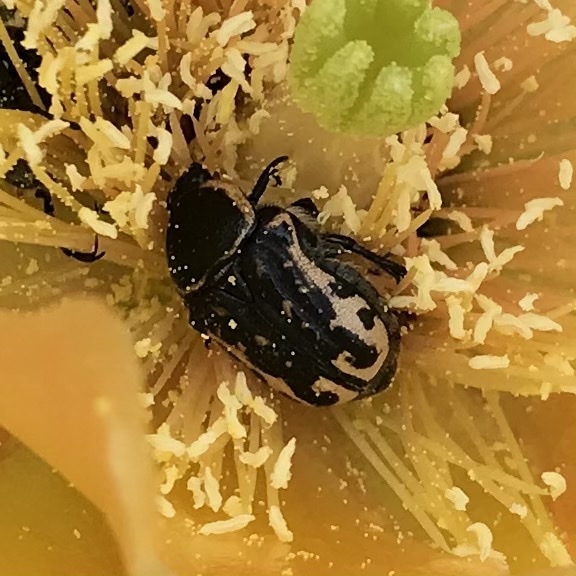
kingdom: Animalia
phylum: Arthropoda
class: Insecta
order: Coleoptera
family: Scarabaeidae
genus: Euphoria
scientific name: Euphoria kernii
